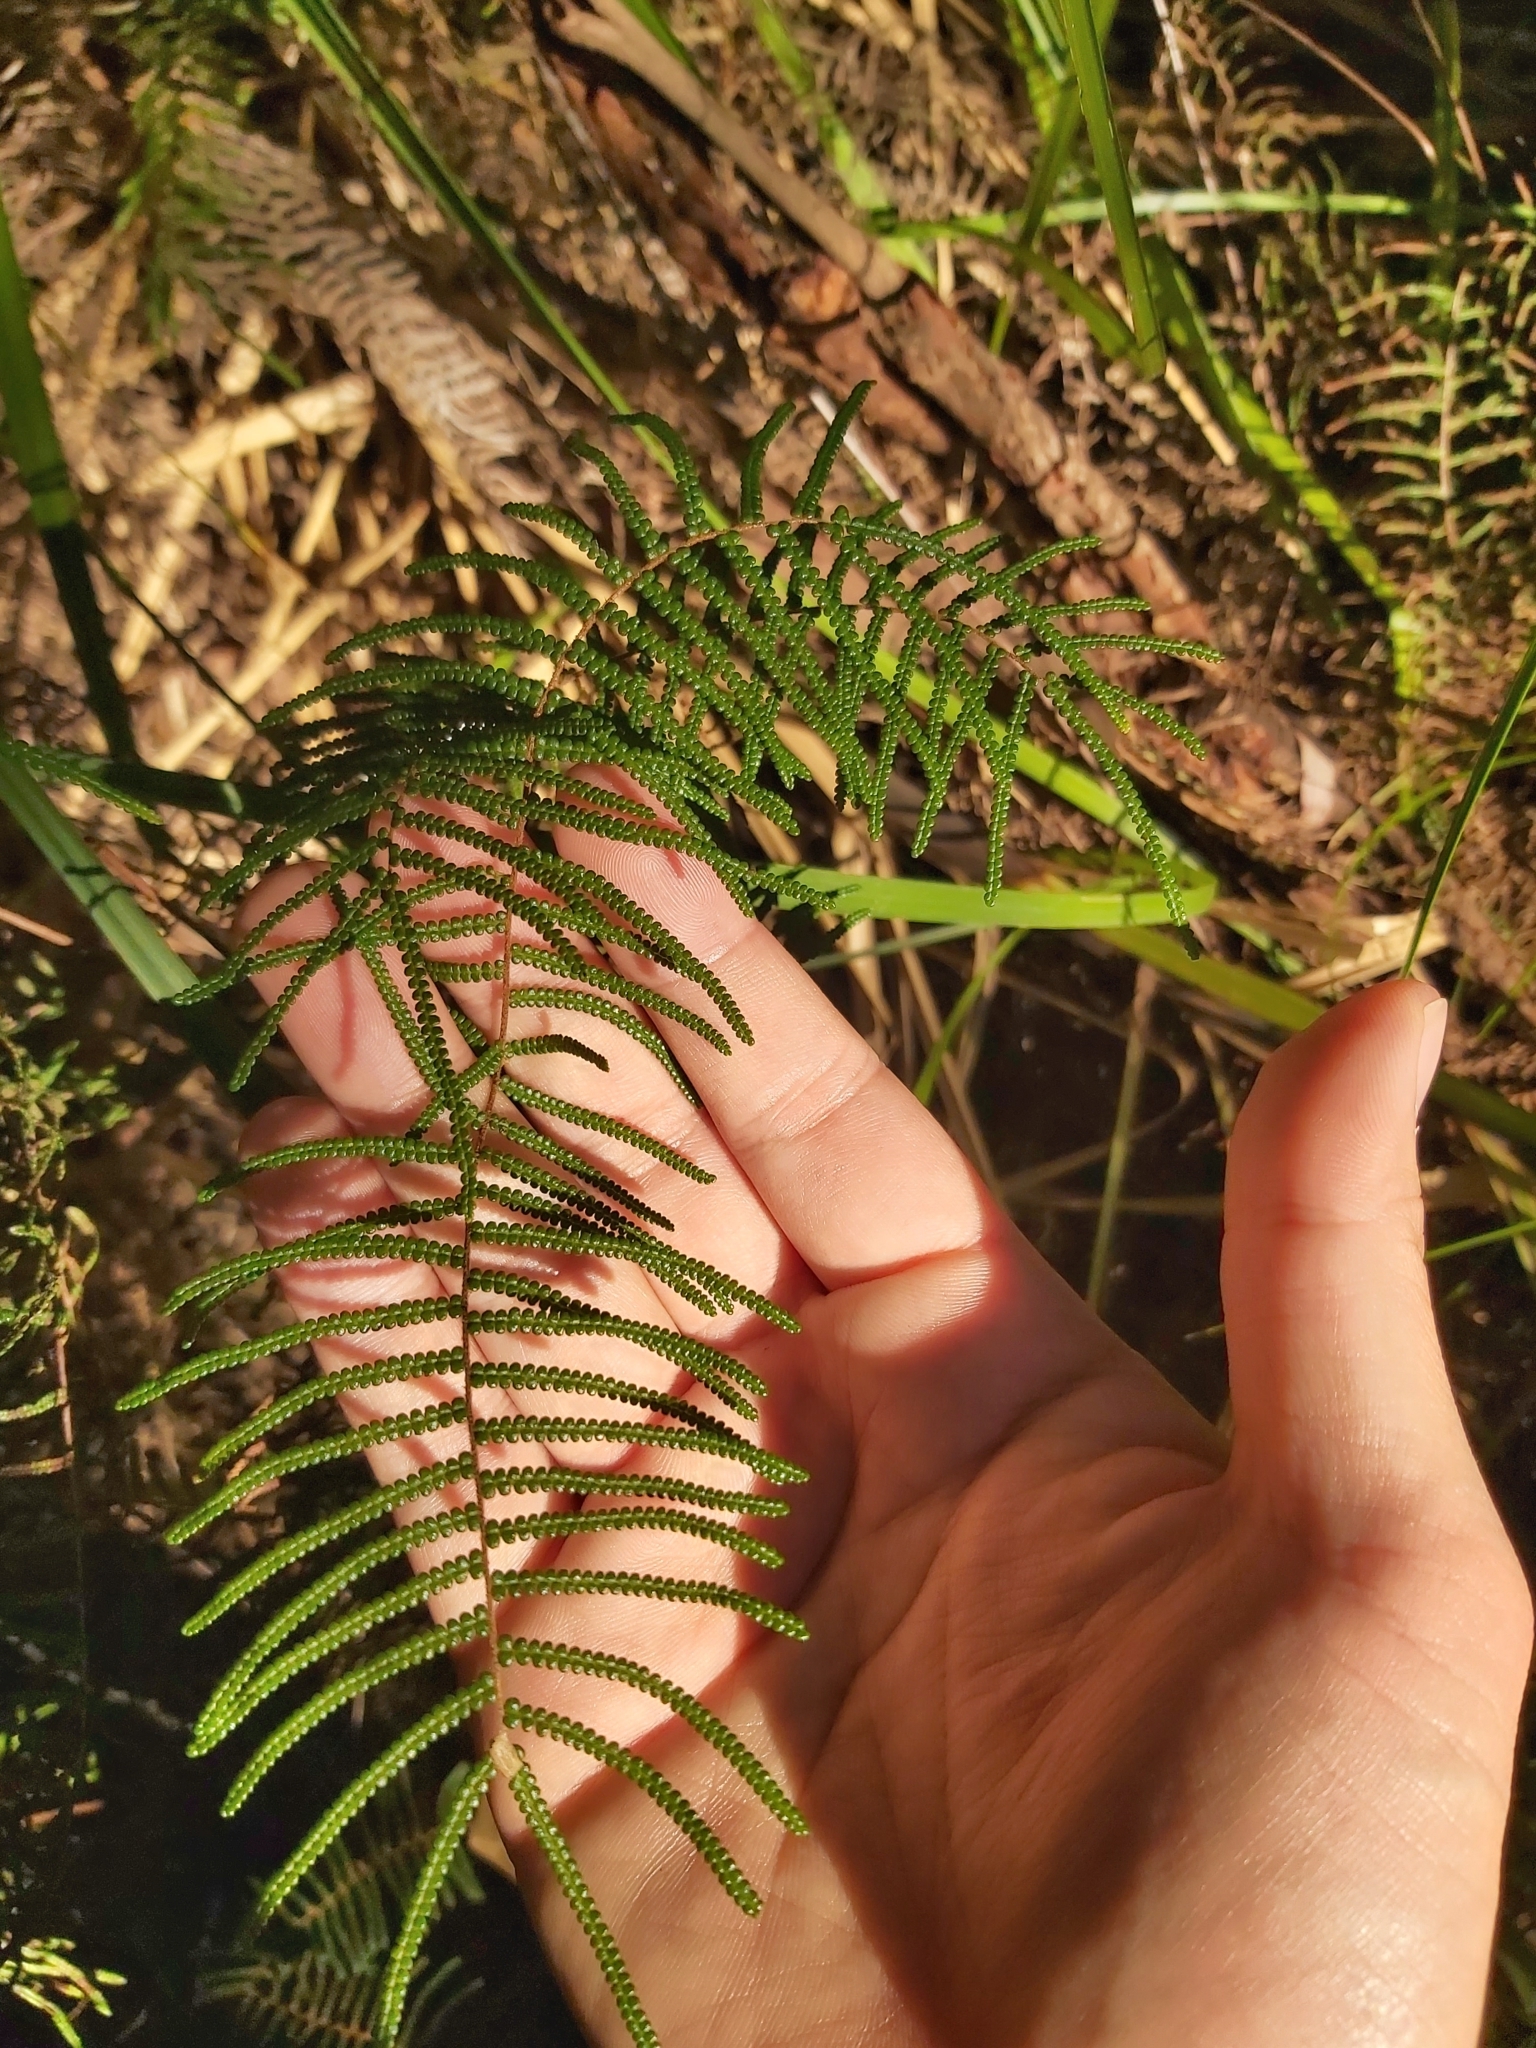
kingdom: Plantae
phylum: Tracheophyta
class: Polypodiopsida
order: Gleicheniales
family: Gleicheniaceae
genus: Gleichenia
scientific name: Gleichenia dicarpa
